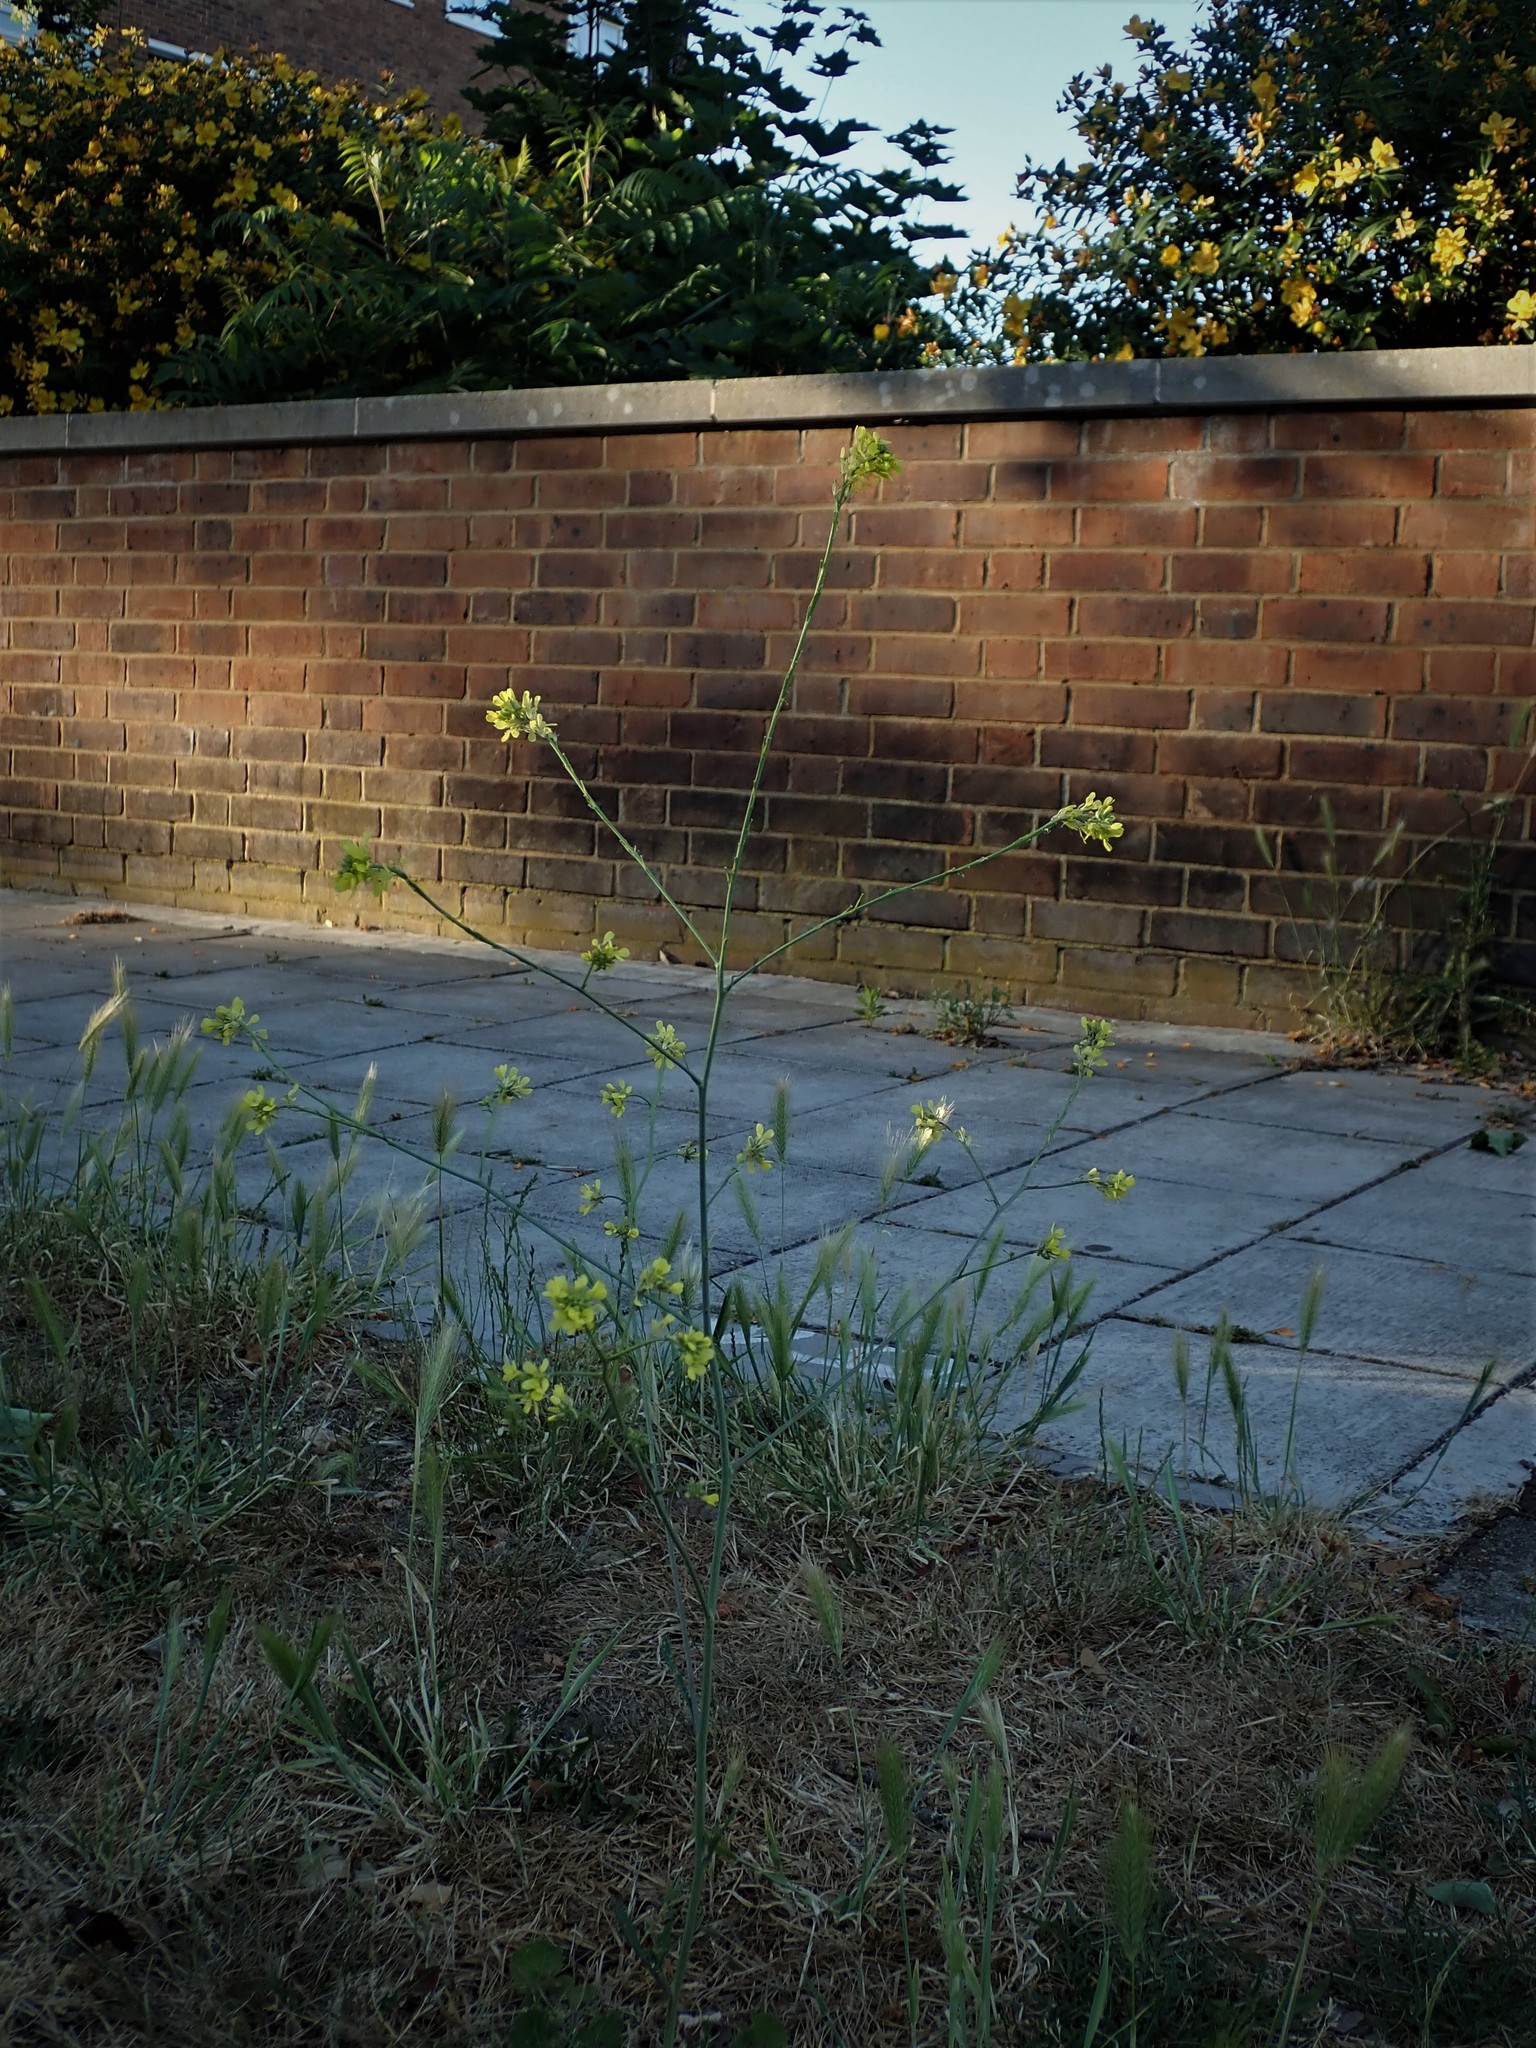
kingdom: Plantae
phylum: Tracheophyta
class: Magnoliopsida
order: Brassicales
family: Brassicaceae
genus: Hirschfeldia
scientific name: Hirschfeldia incana
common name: Hoary mustard
